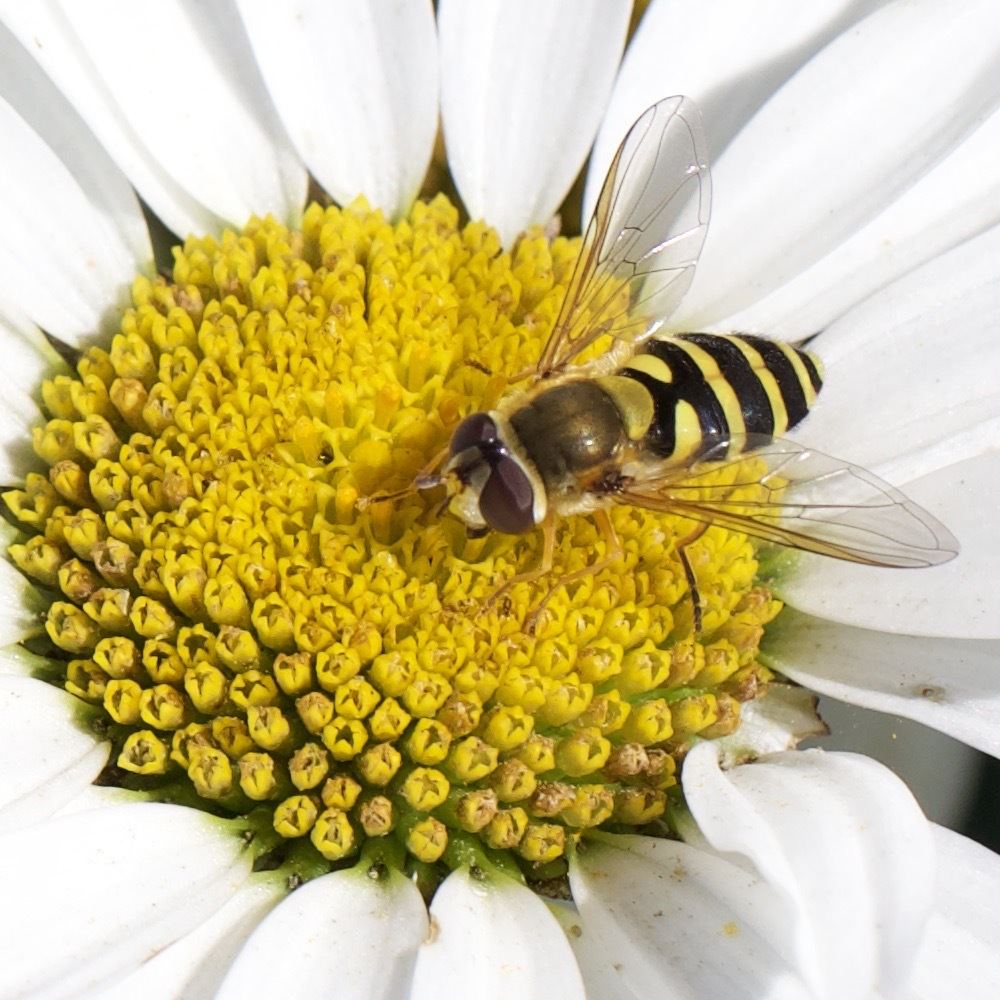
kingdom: Animalia
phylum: Arthropoda
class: Insecta
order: Diptera
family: Syrphidae
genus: Syrphus
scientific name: Syrphus
